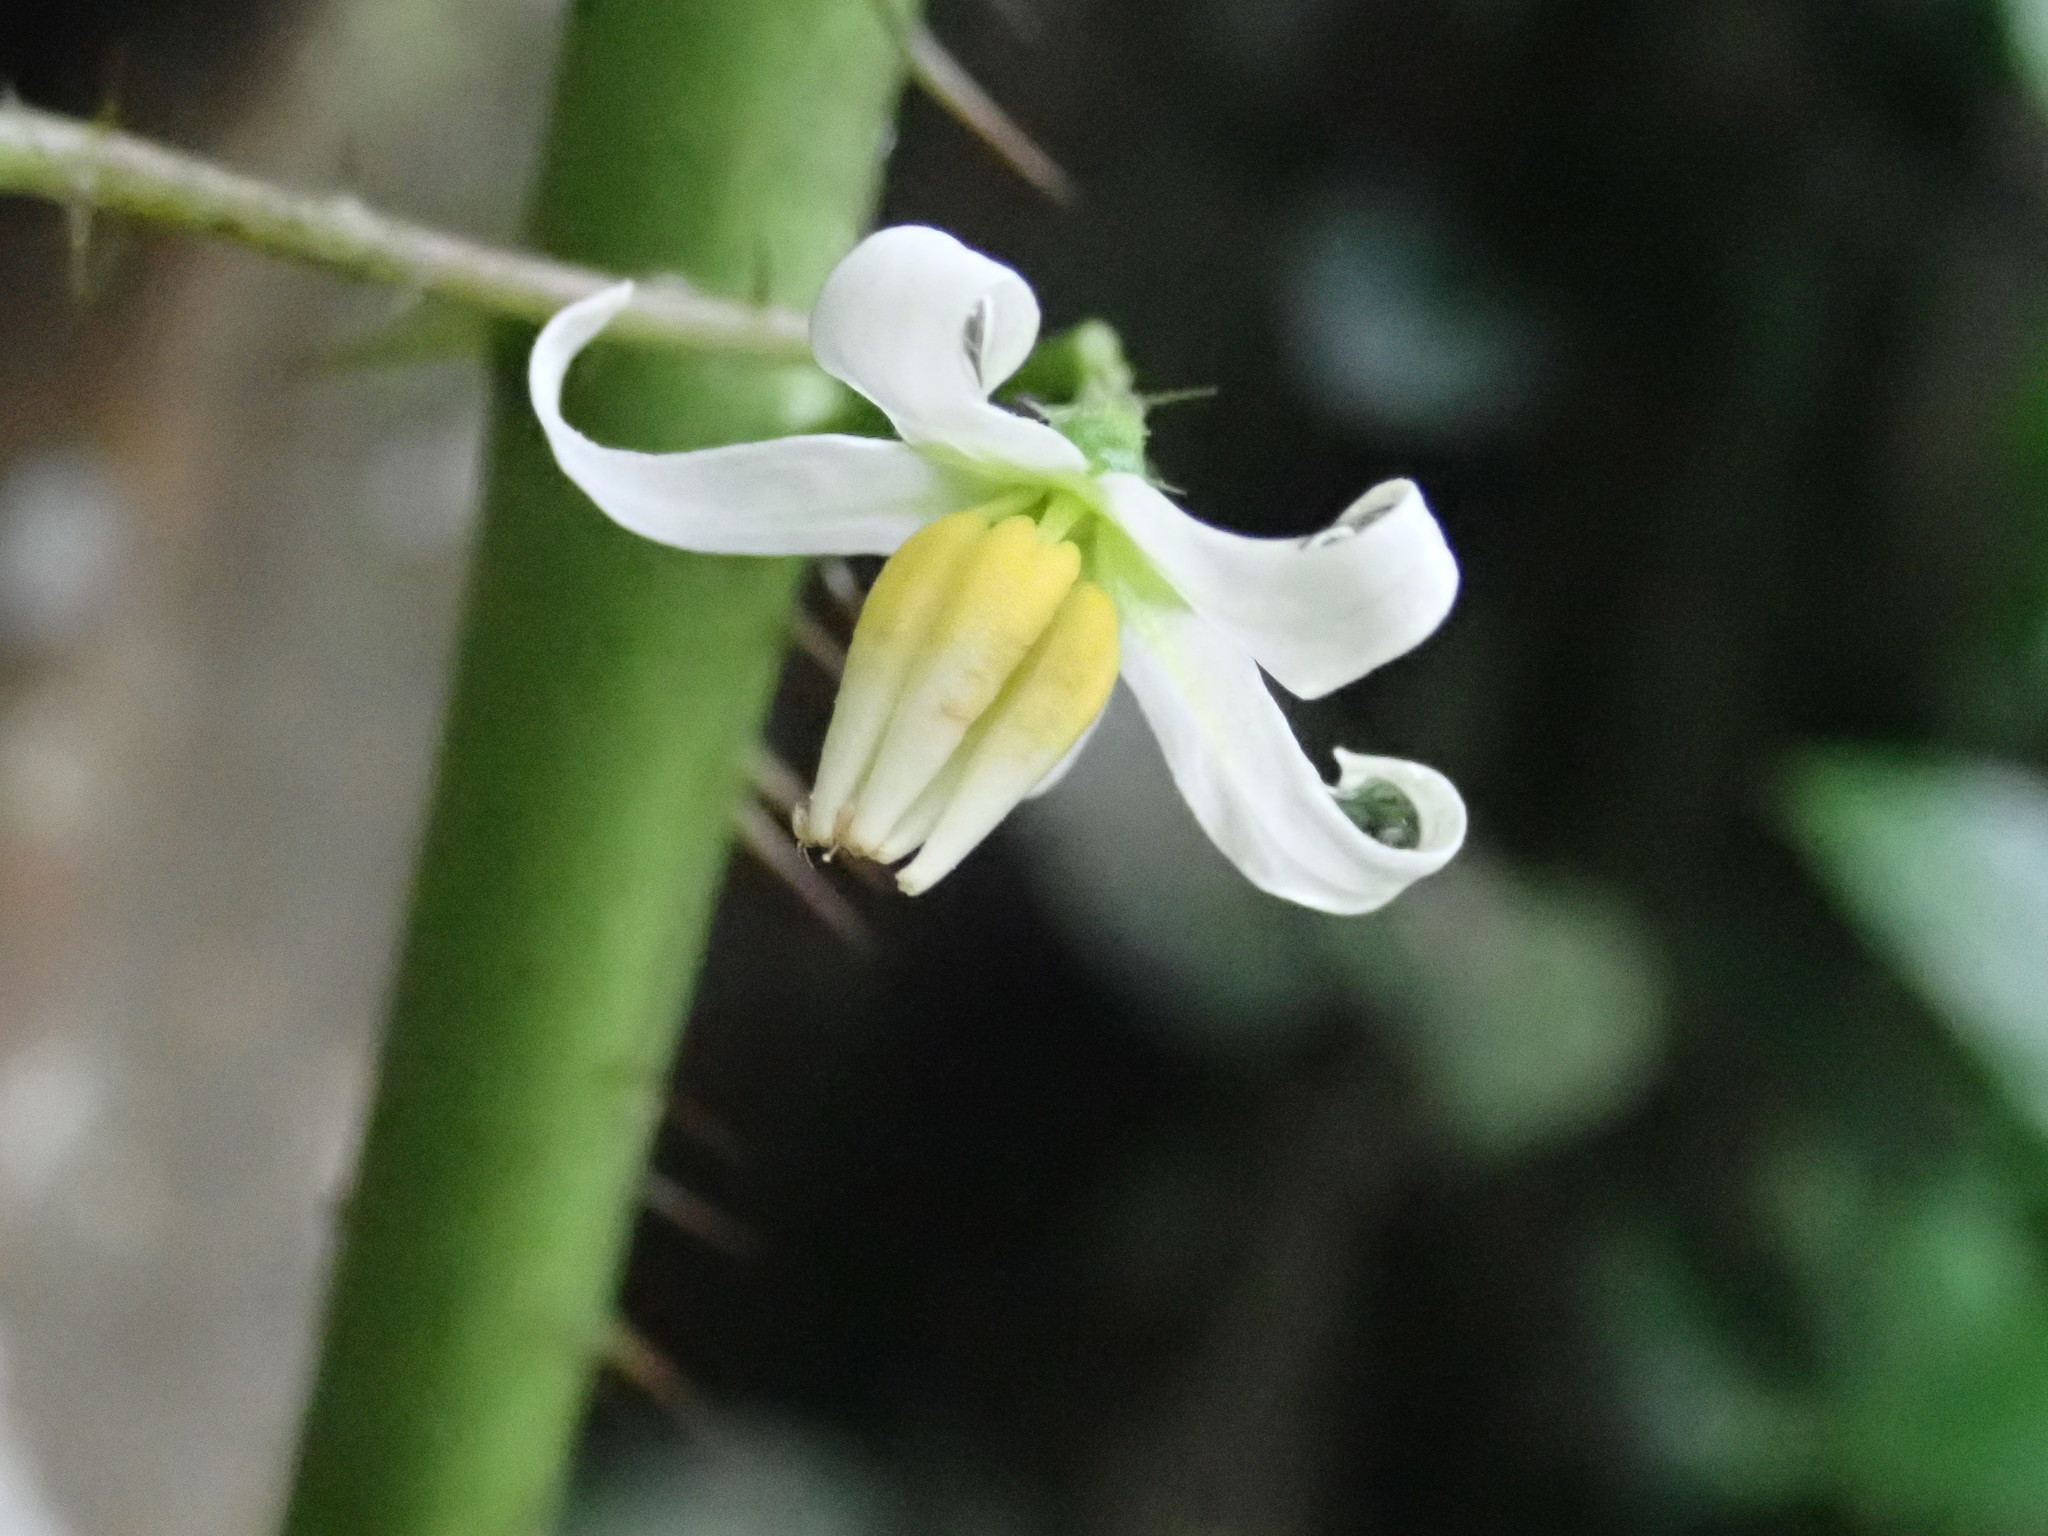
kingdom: Plantae
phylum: Tracheophyta
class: Magnoliopsida
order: Solanales
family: Solanaceae
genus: Solanum
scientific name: Solanum capsicoides
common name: Cockroach berry
